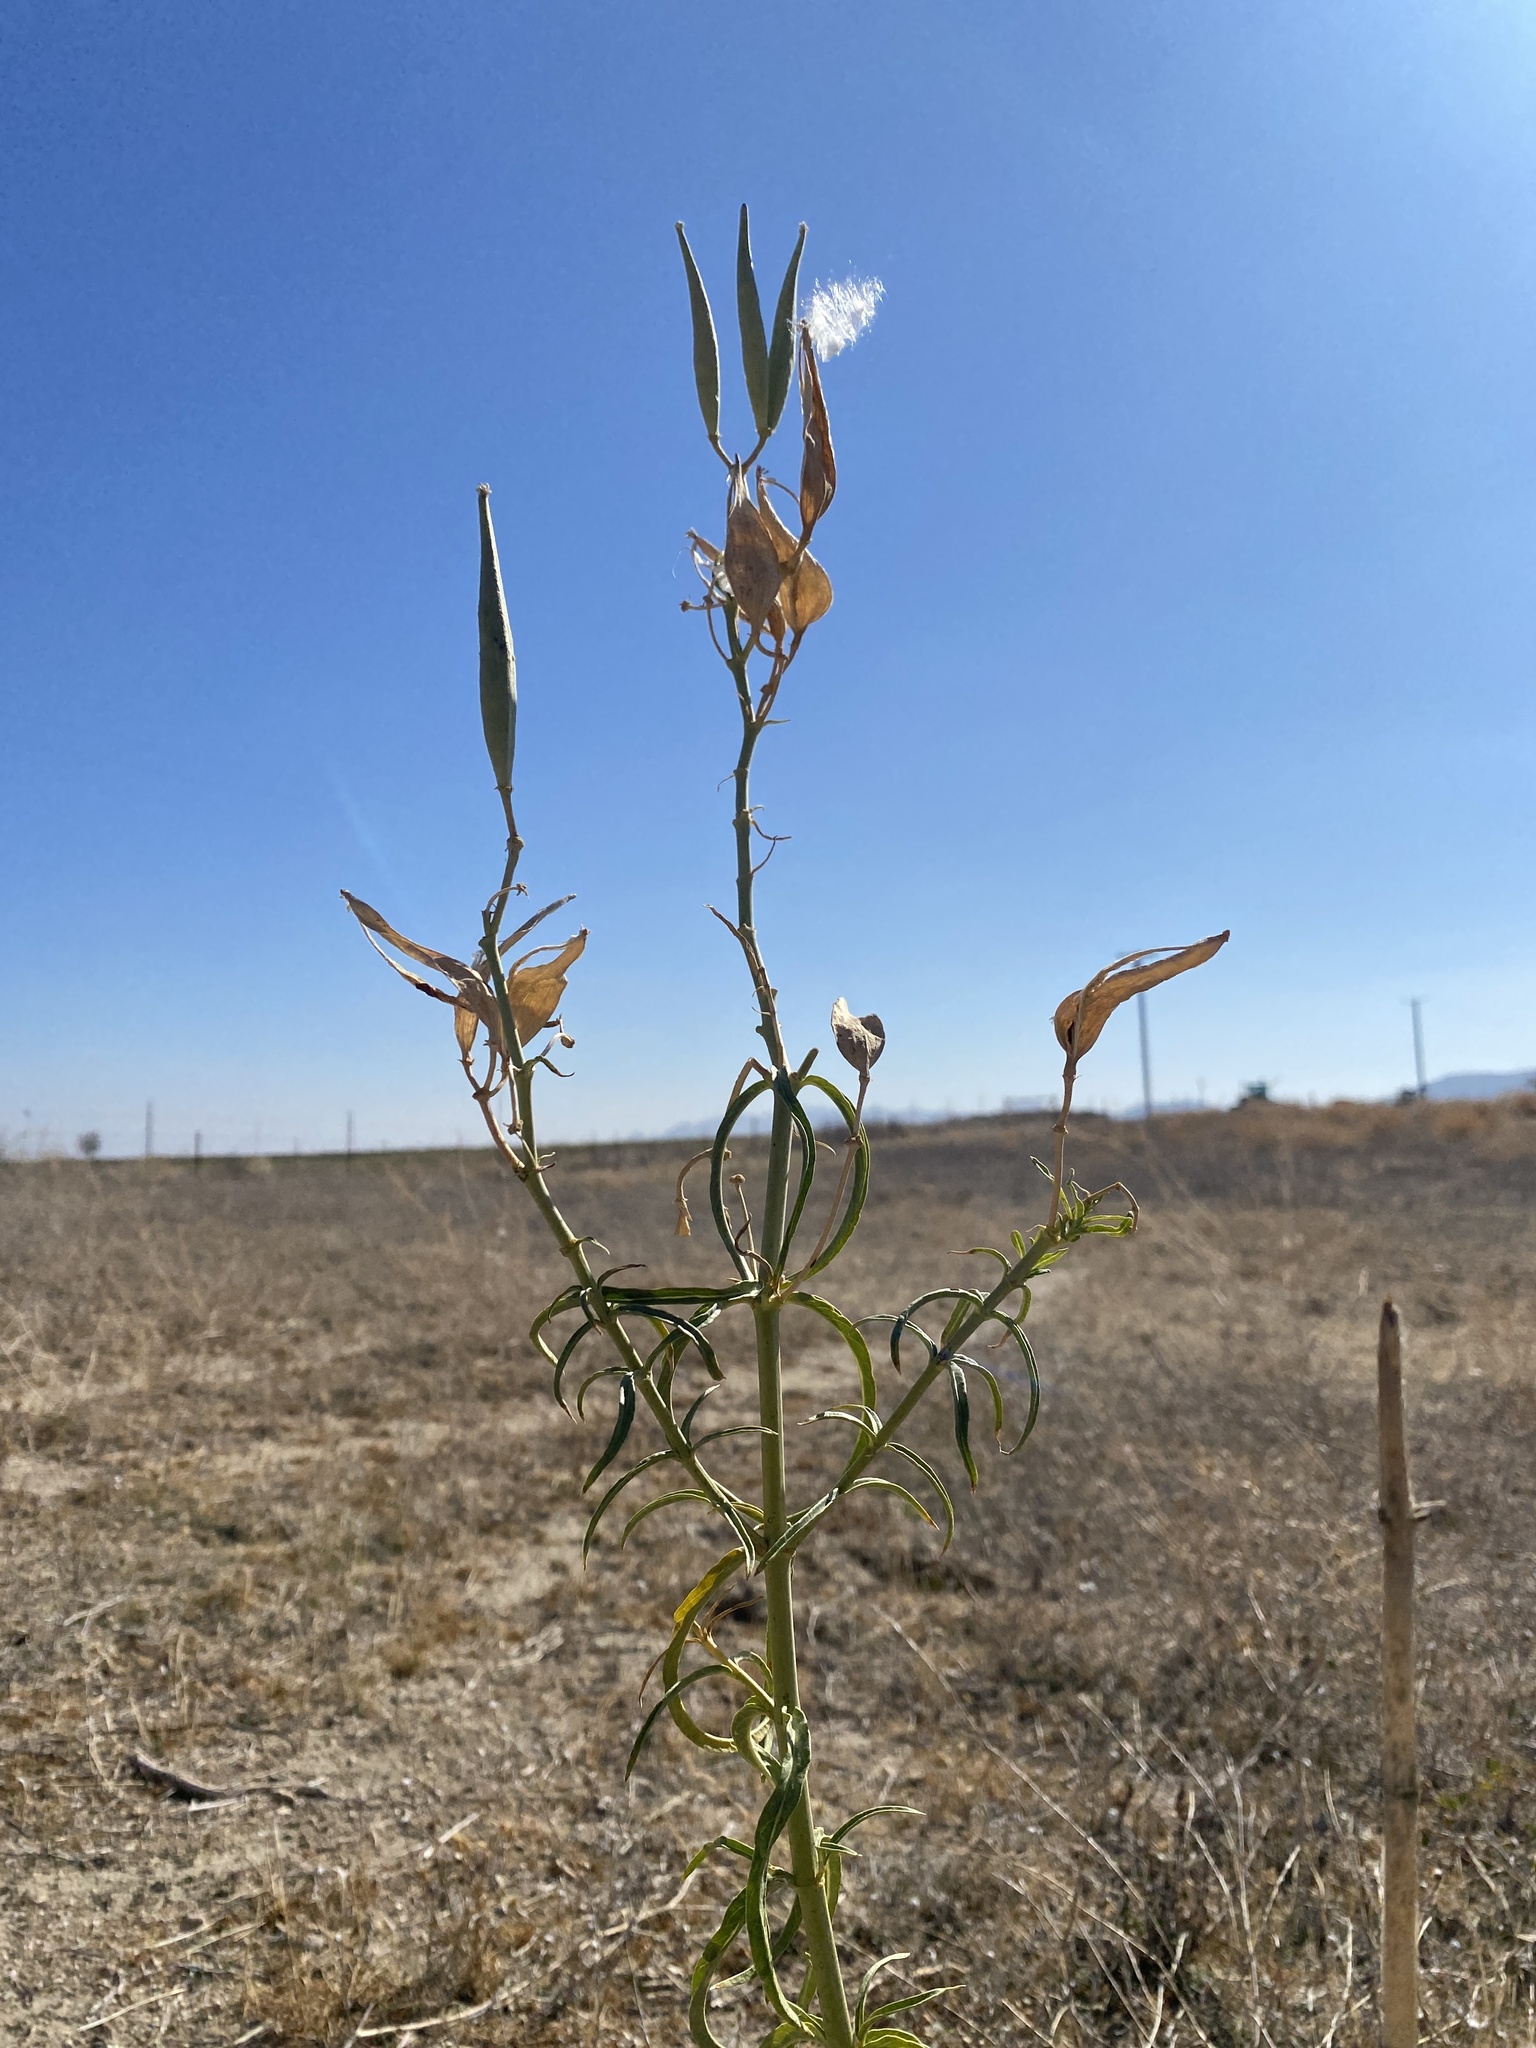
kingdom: Plantae
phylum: Tracheophyta
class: Magnoliopsida
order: Gentianales
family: Apocynaceae
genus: Asclepias
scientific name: Asclepias fascicularis
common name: Mexican milkweed
